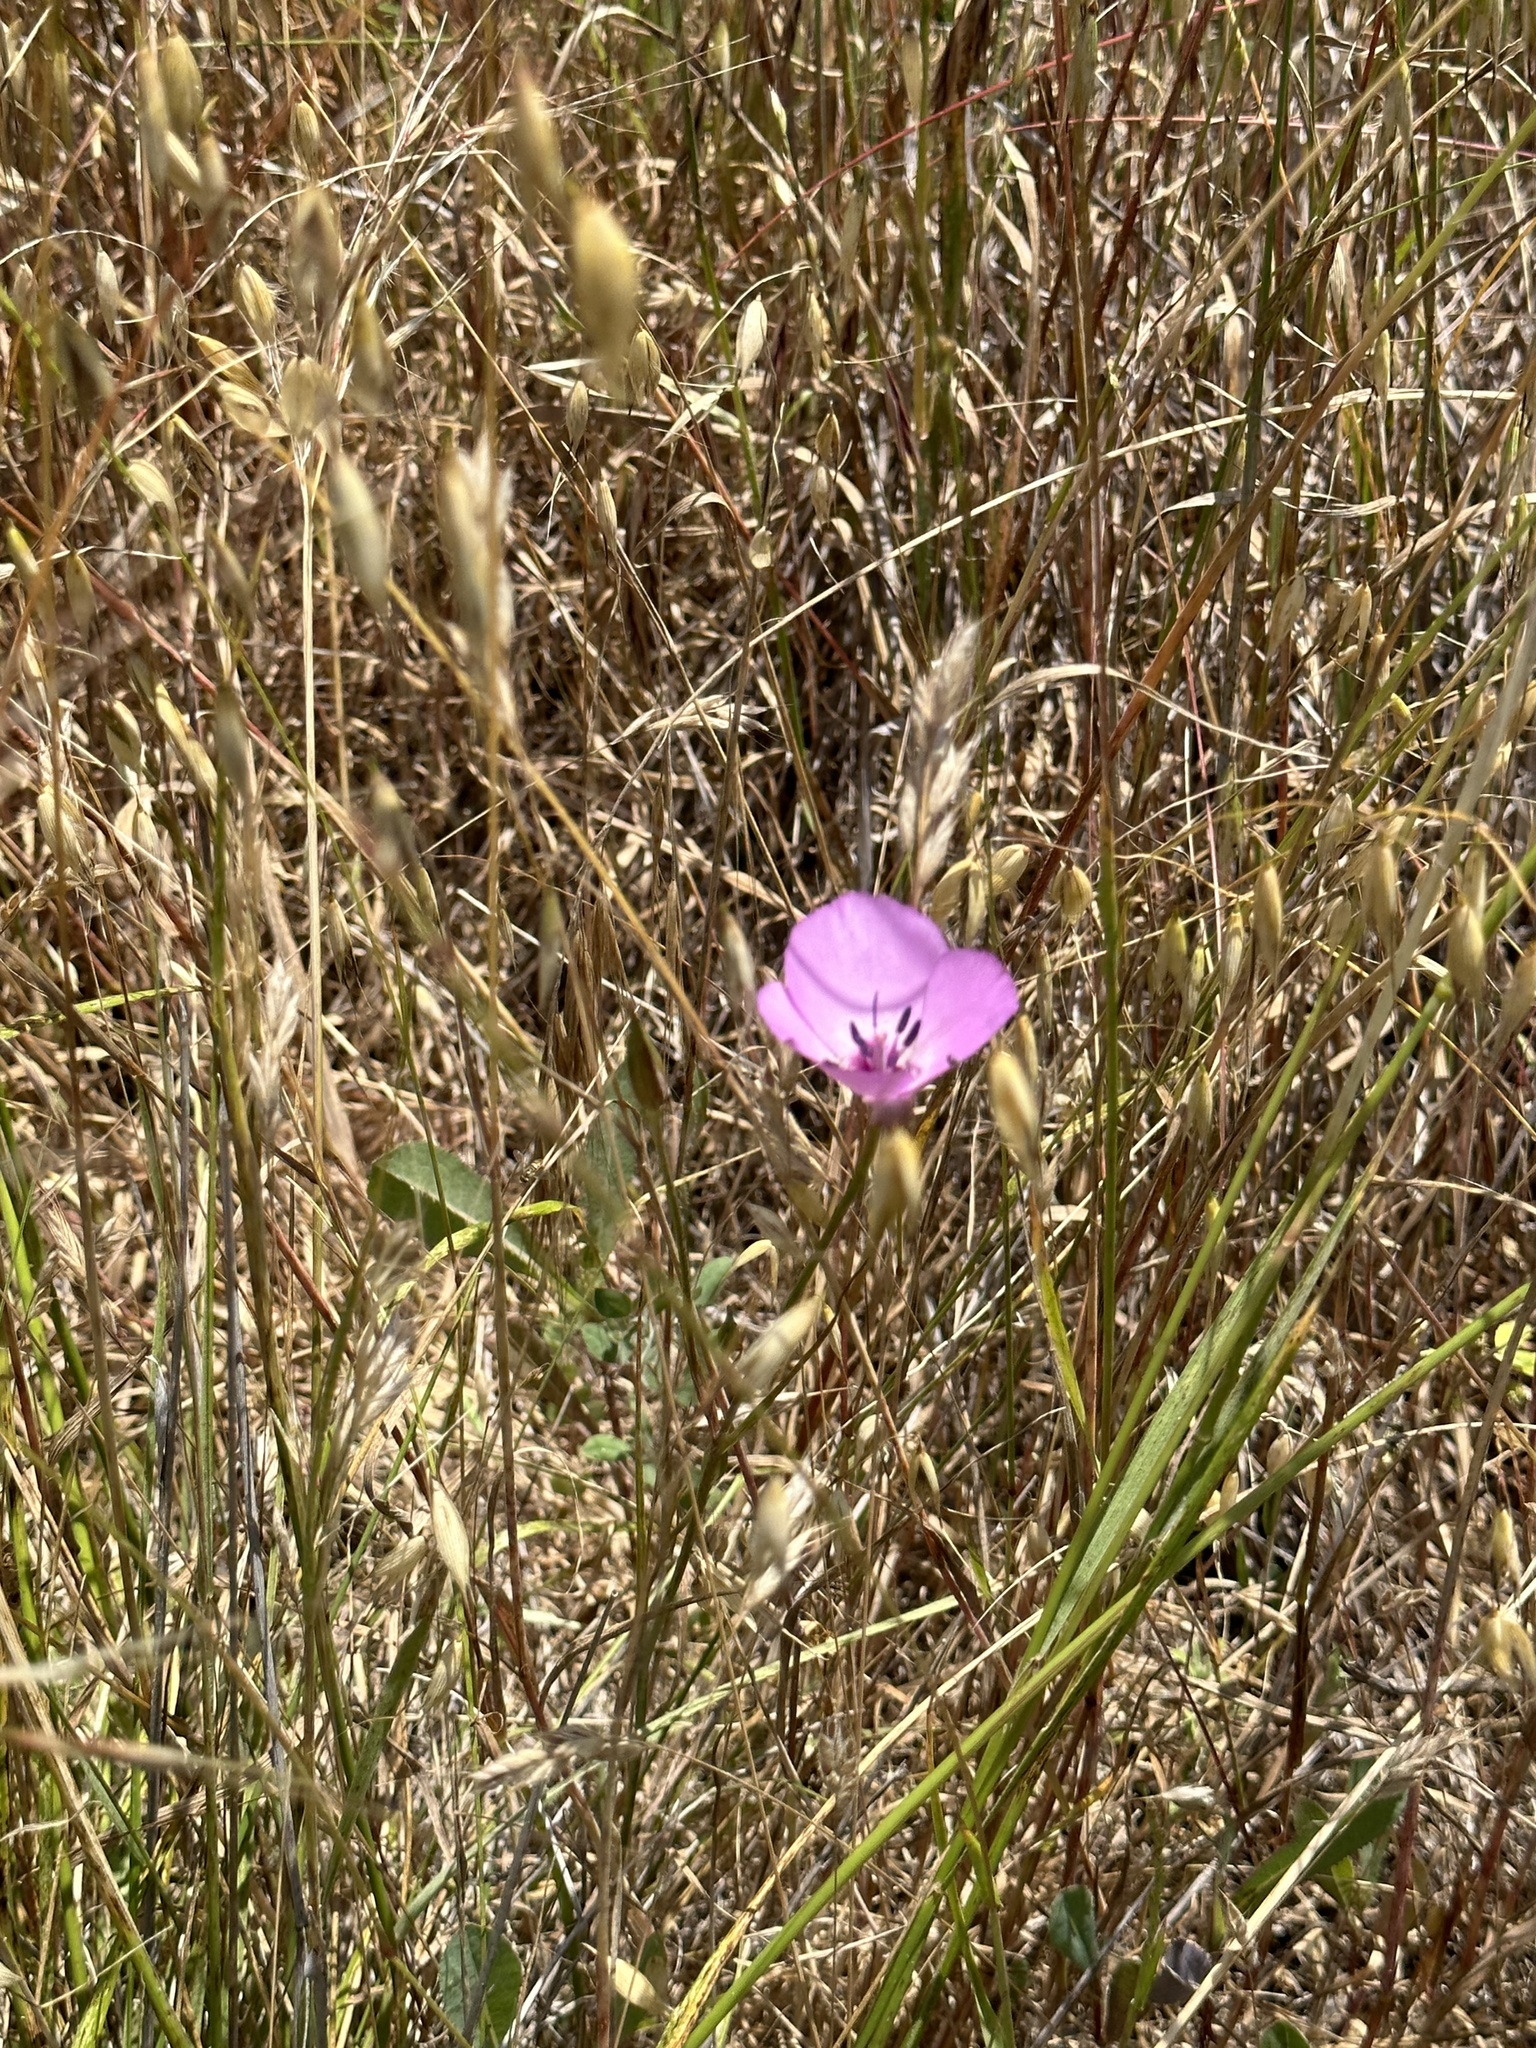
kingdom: Plantae
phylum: Tracheophyta
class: Liliopsida
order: Liliales
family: Liliaceae
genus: Calochortus
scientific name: Calochortus splendens
